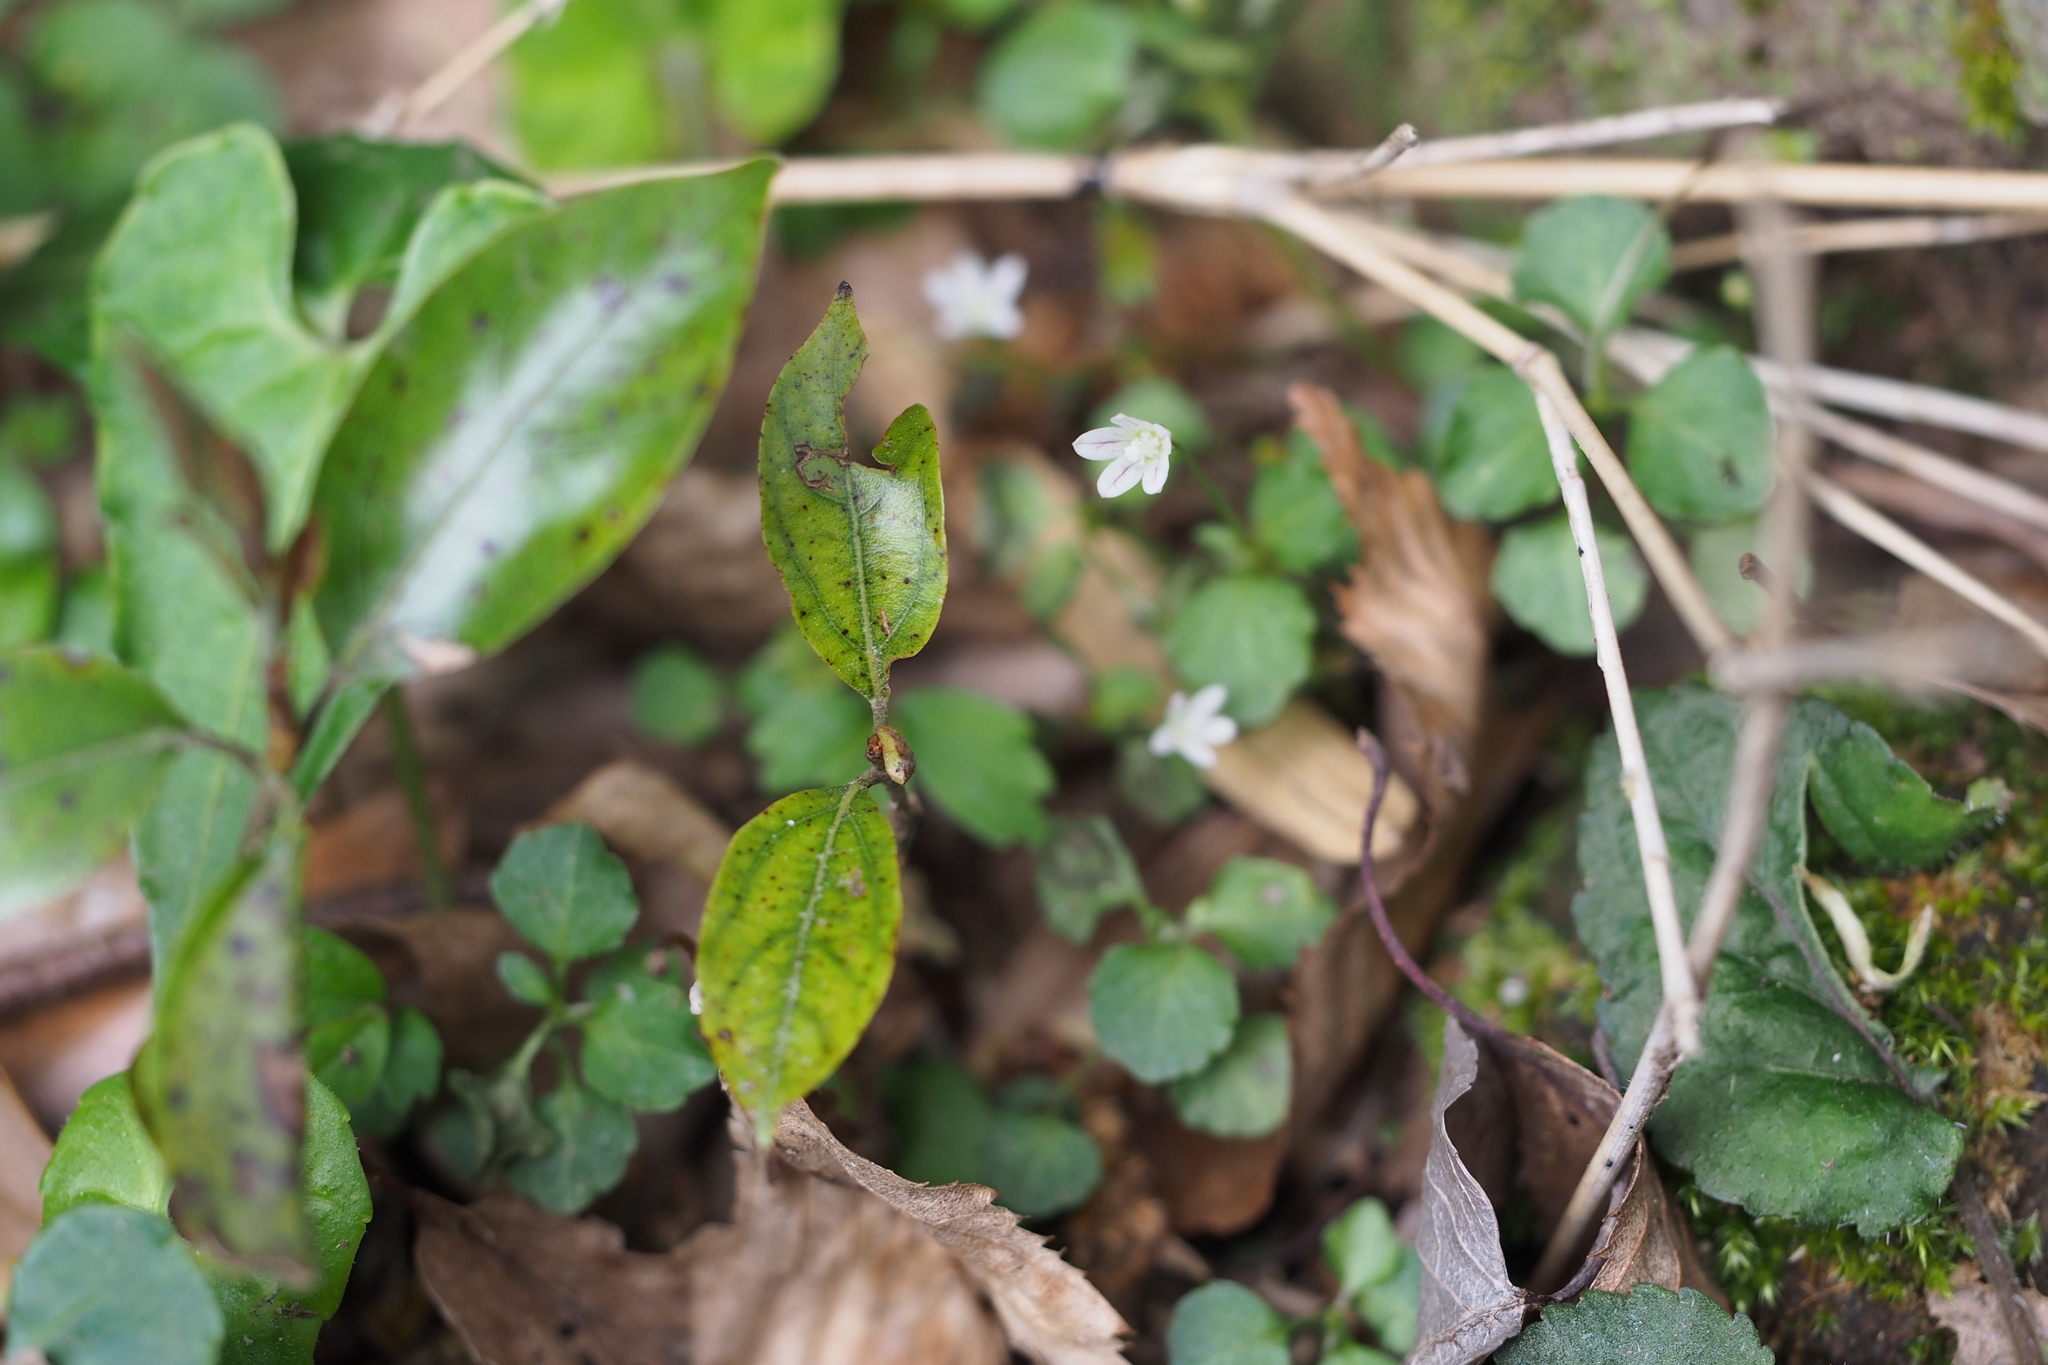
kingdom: Plantae
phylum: Tracheophyta
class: Magnoliopsida
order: Asterales
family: Campanulaceae
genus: Peracarpa
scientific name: Peracarpa carnosa
